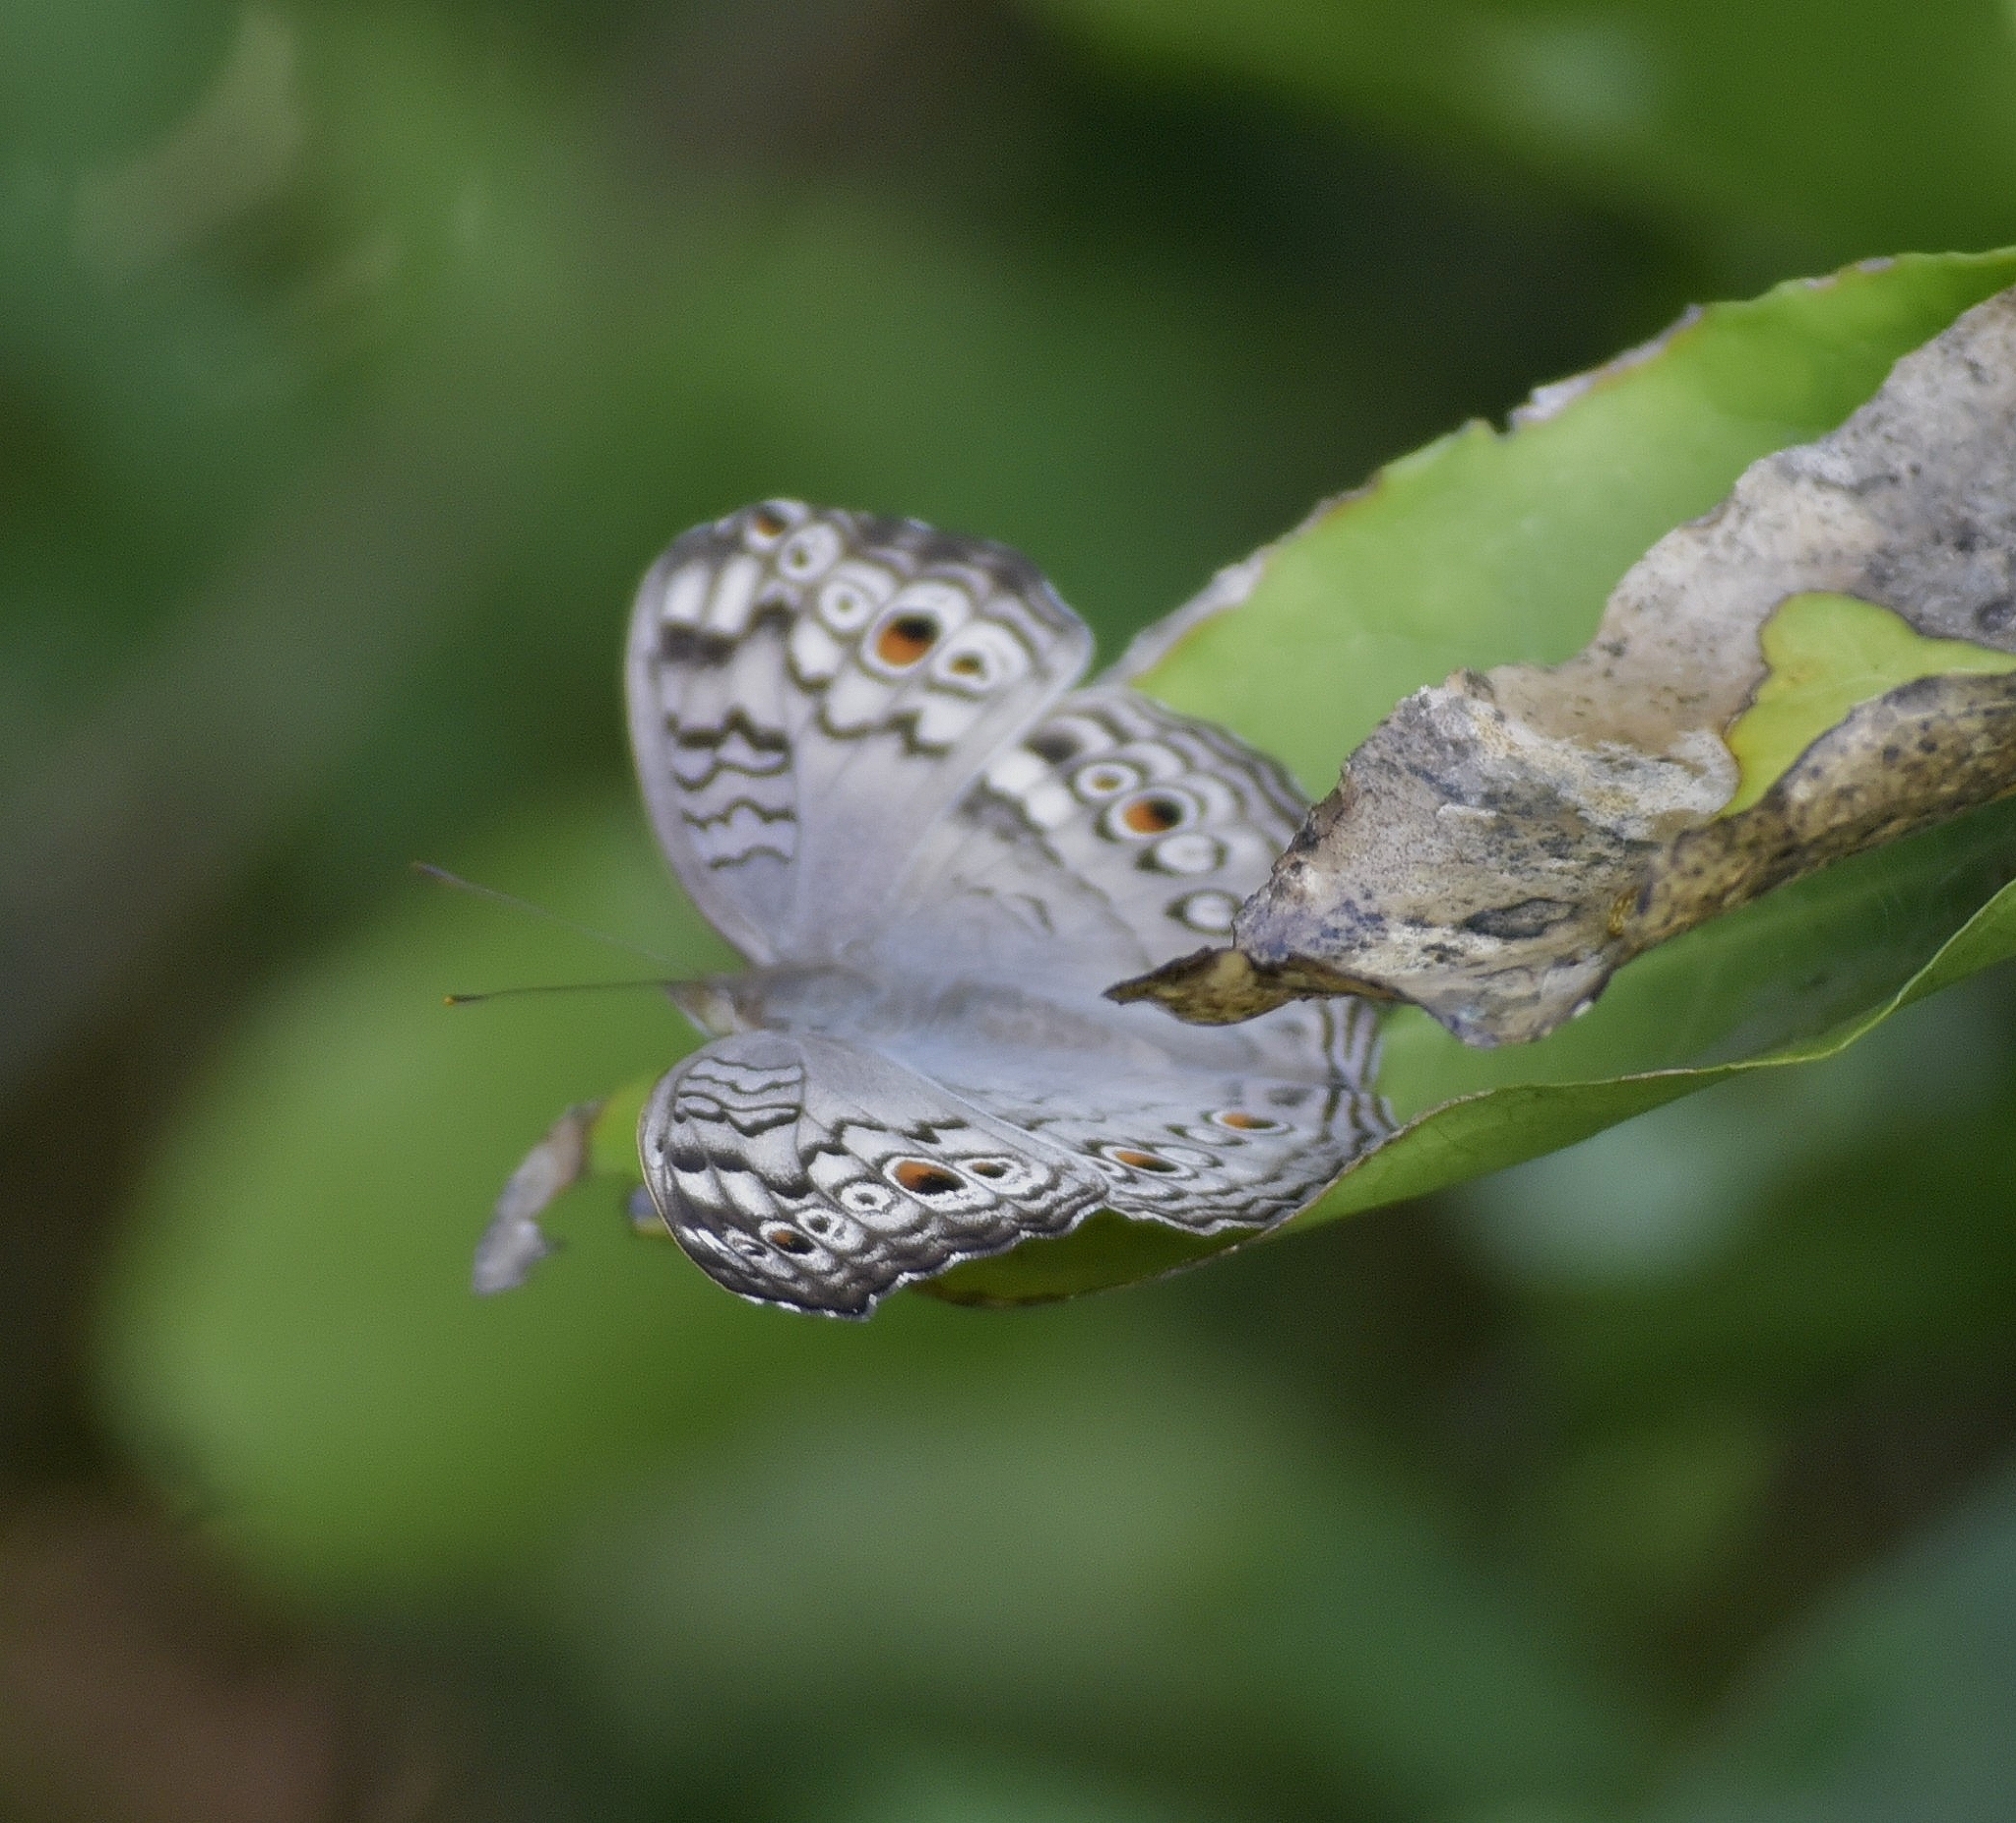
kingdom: Animalia
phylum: Arthropoda
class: Insecta
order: Lepidoptera
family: Nymphalidae
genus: Junonia
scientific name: Junonia atlites
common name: Grey pansy
